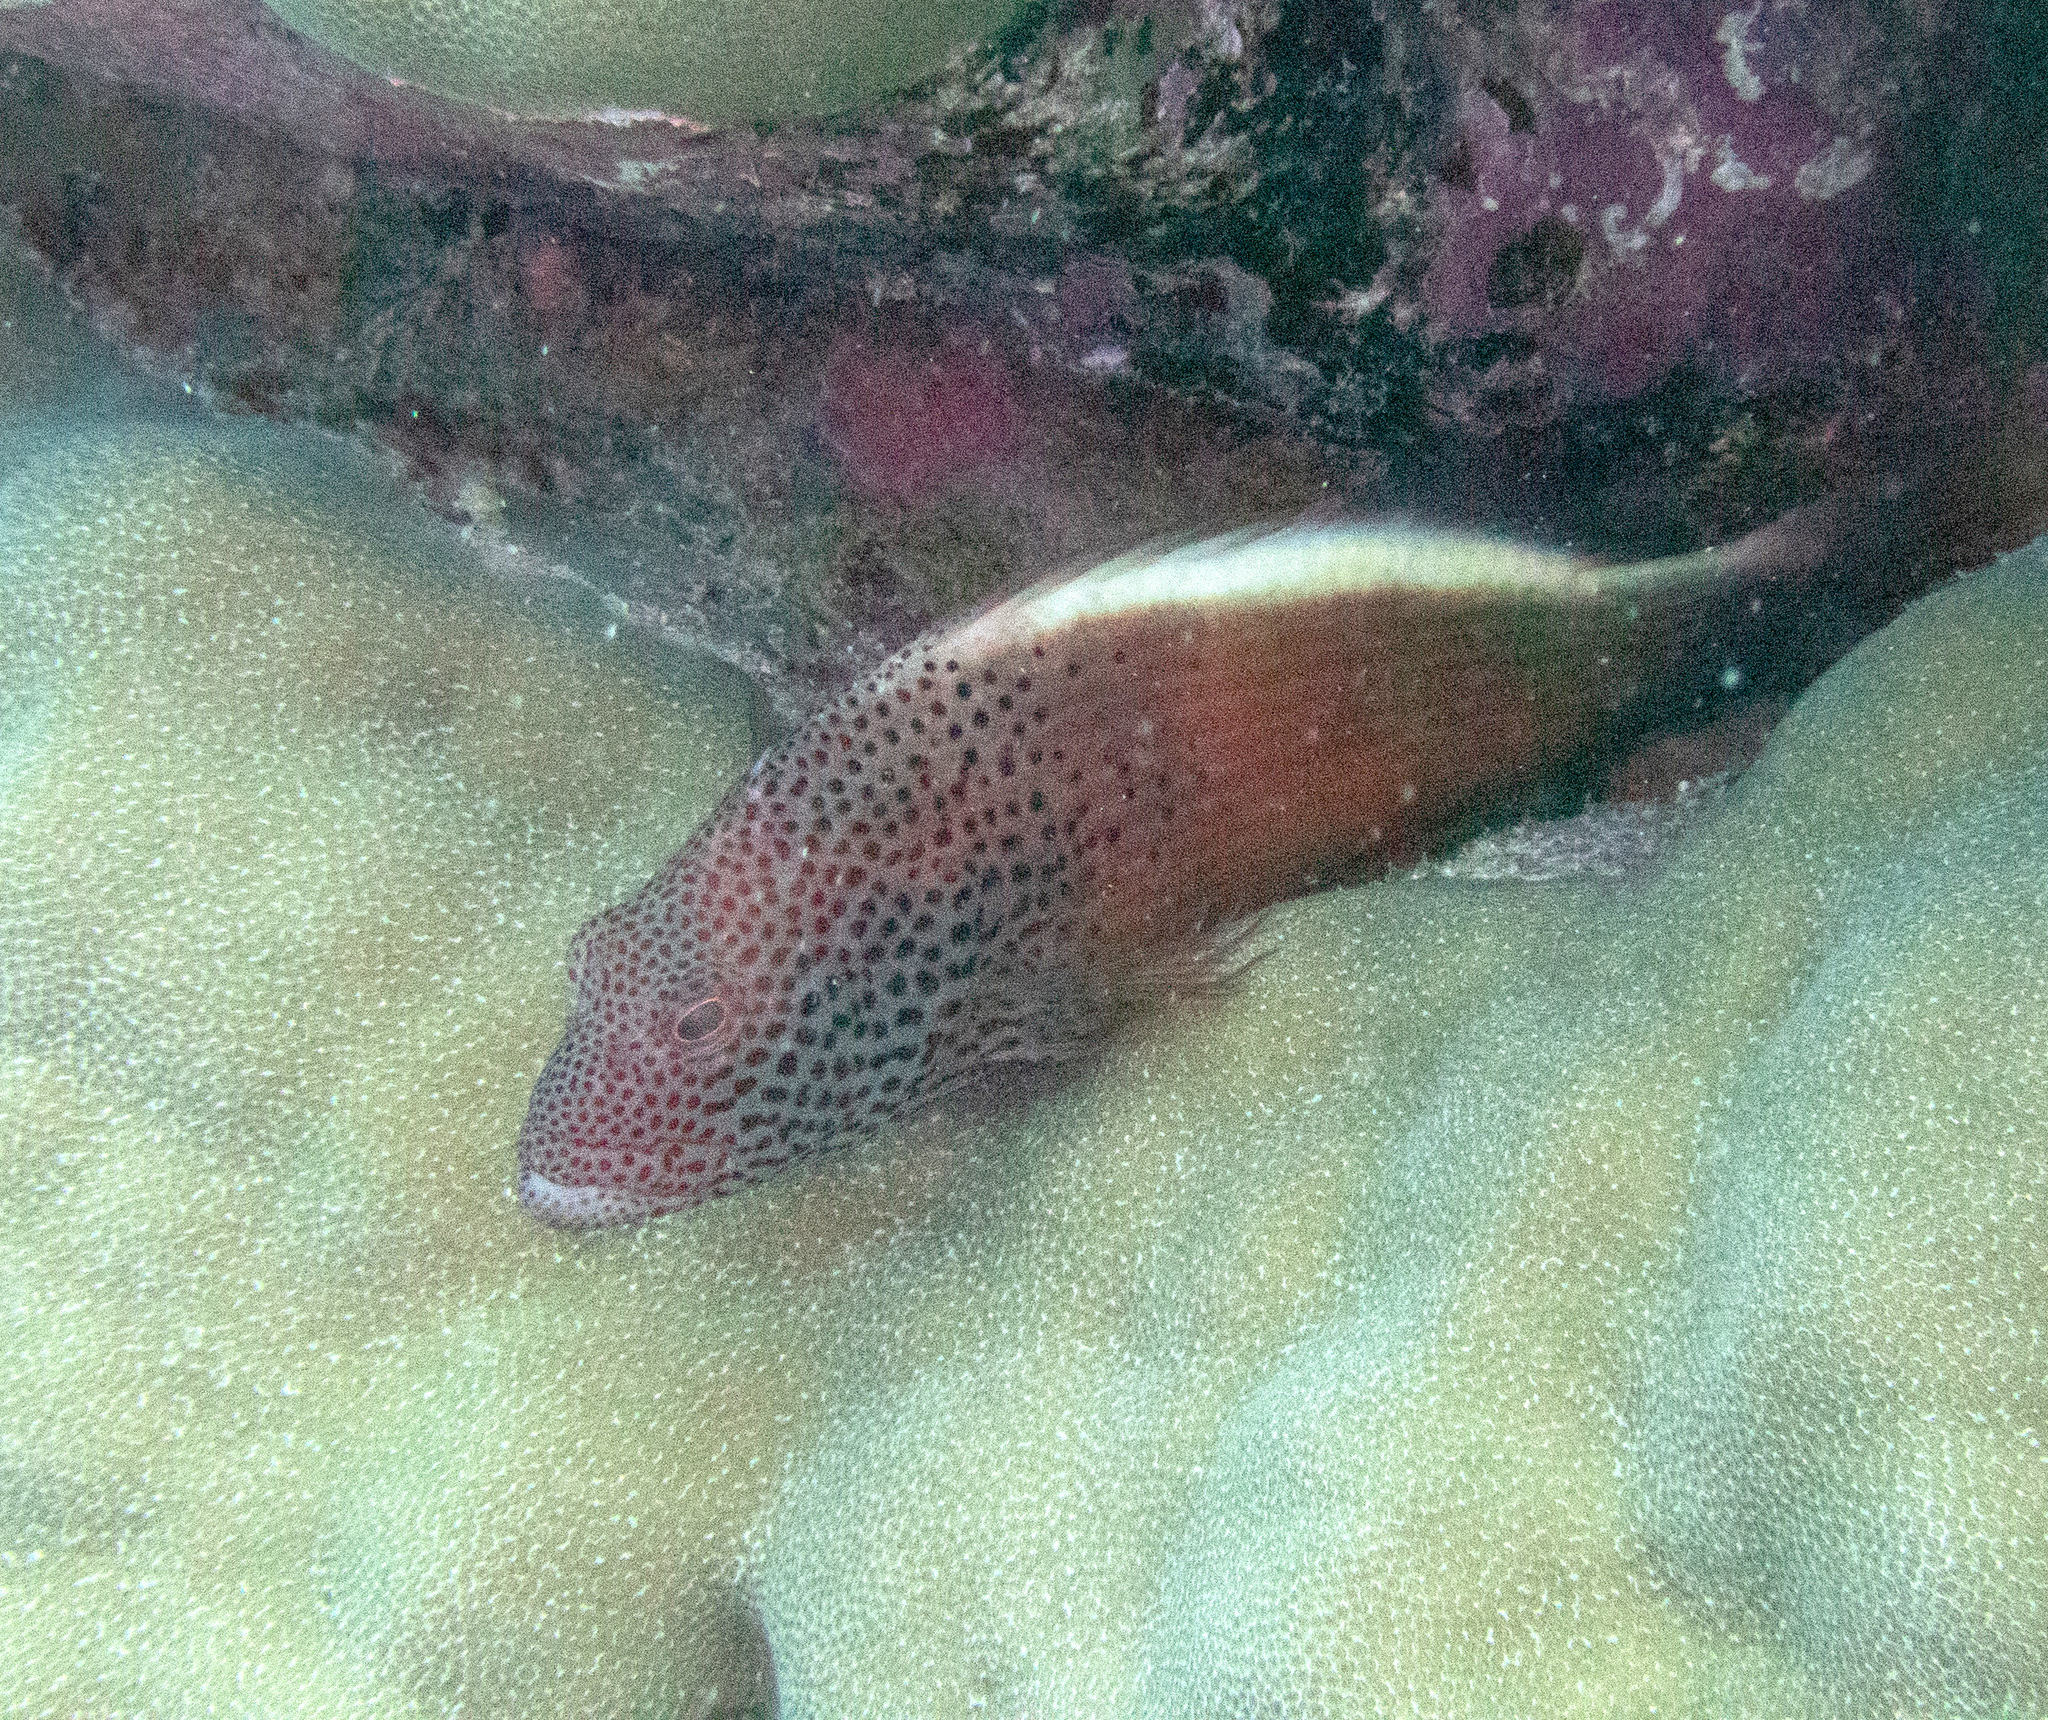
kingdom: Animalia
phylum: Chordata
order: Perciformes
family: Cirrhitidae
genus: Paracirrhites
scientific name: Paracirrhites forsteri
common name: Freckled hawkfish
